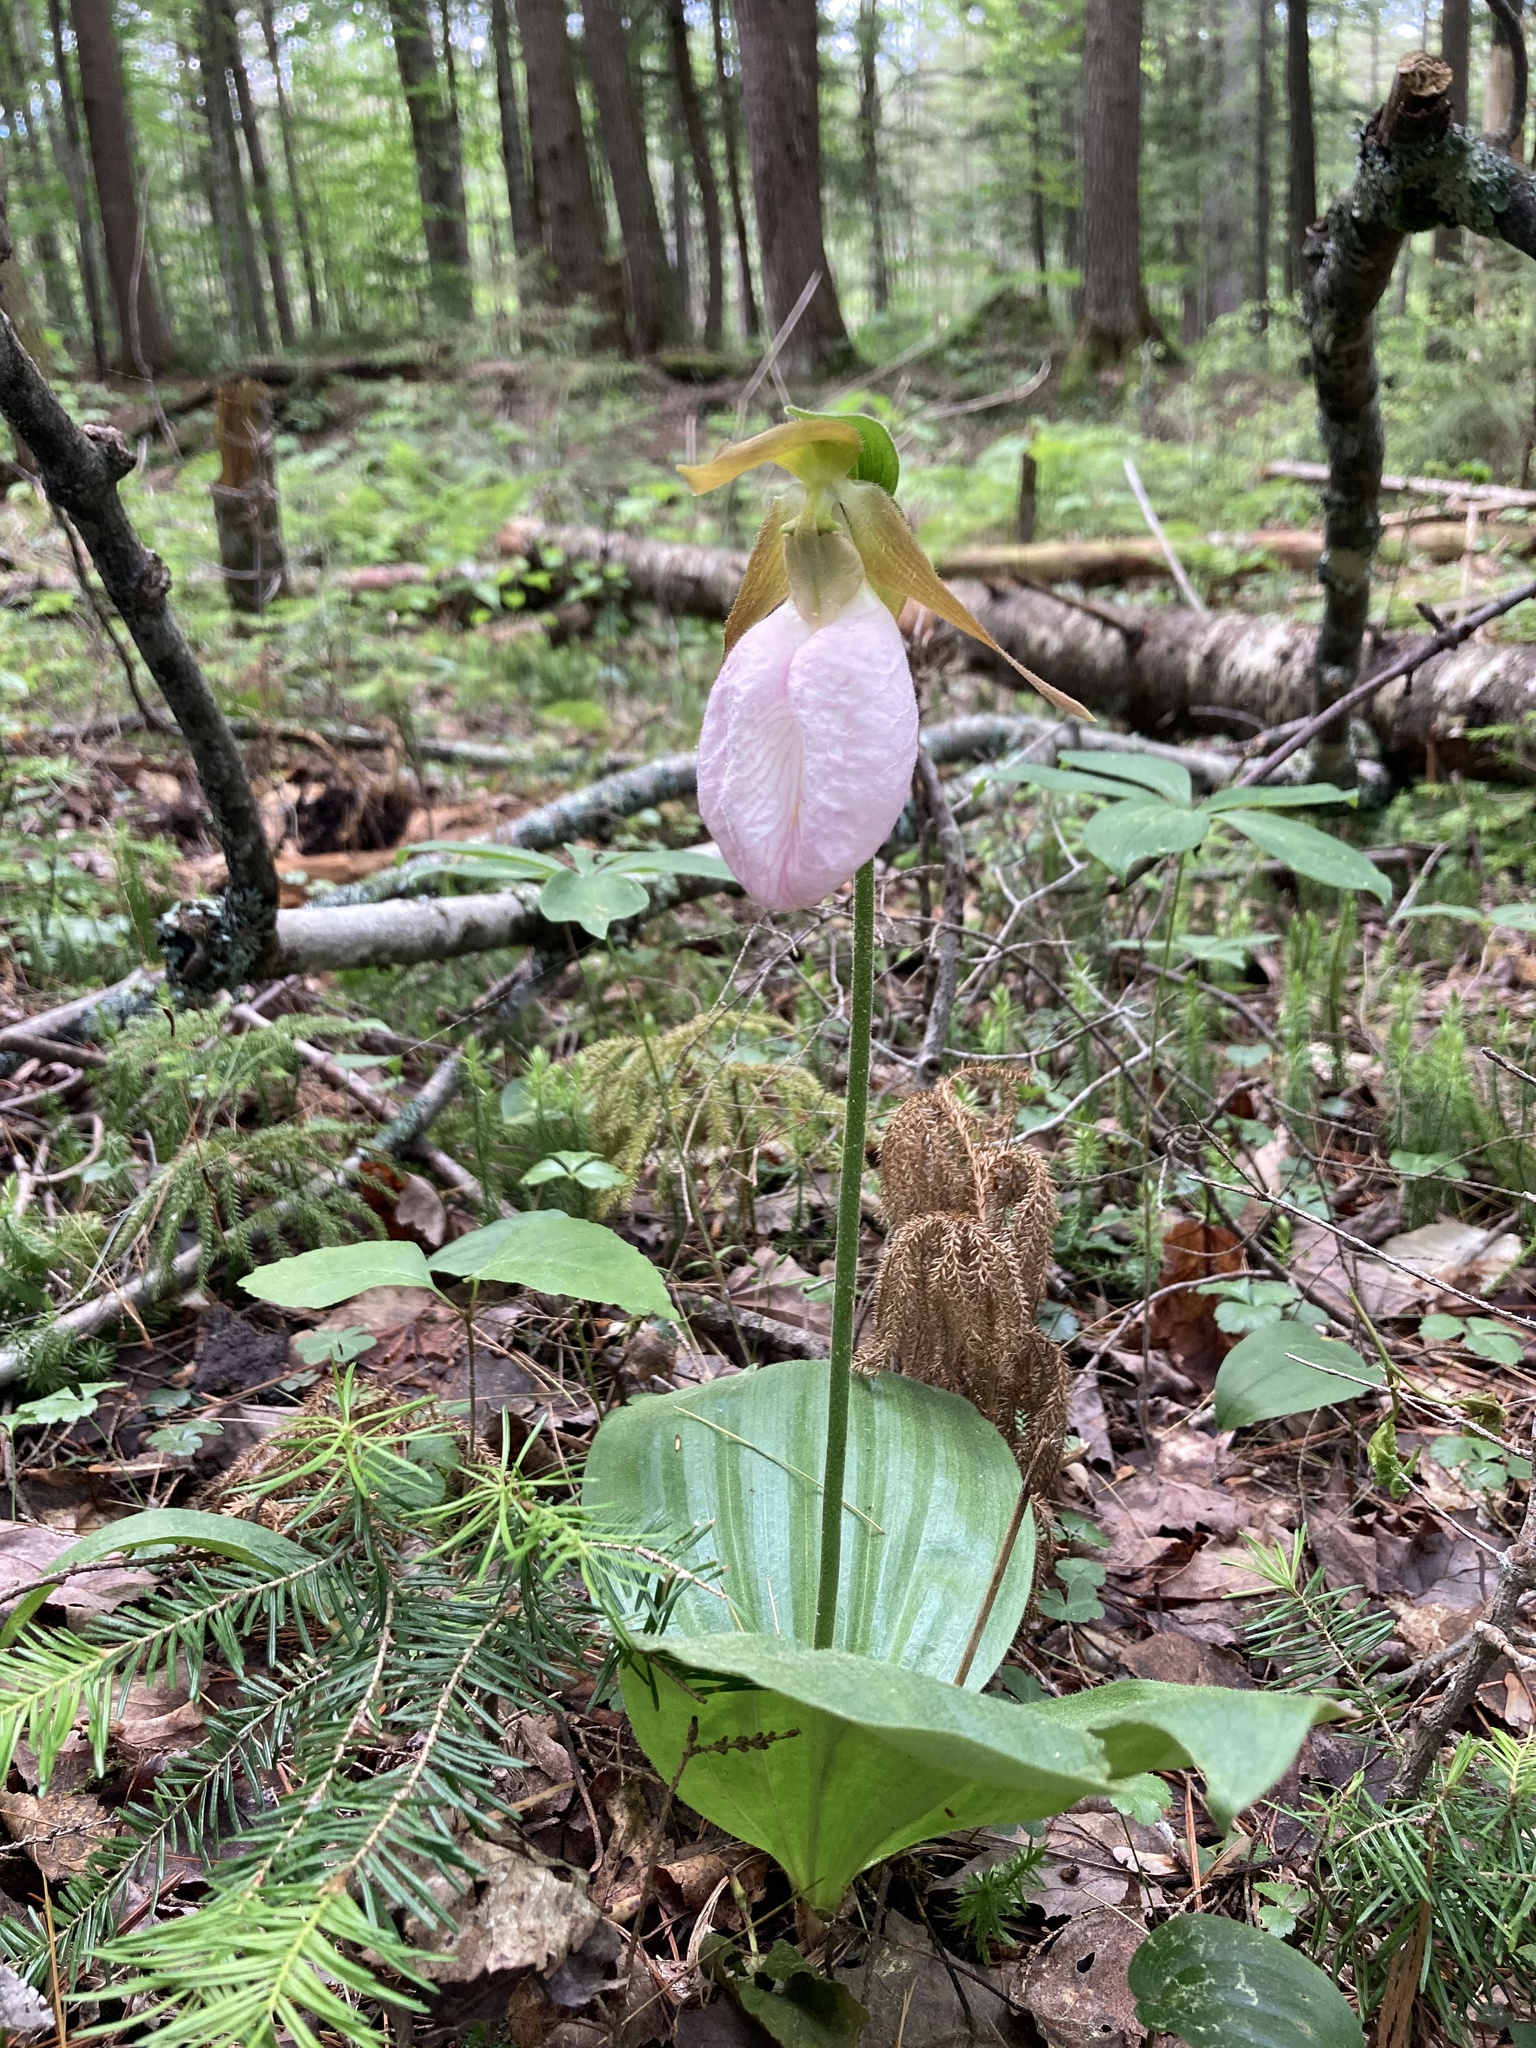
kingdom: Plantae
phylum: Tracheophyta
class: Liliopsida
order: Asparagales
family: Orchidaceae
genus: Cypripedium
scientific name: Cypripedium acaule
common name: Pink lady's-slipper
